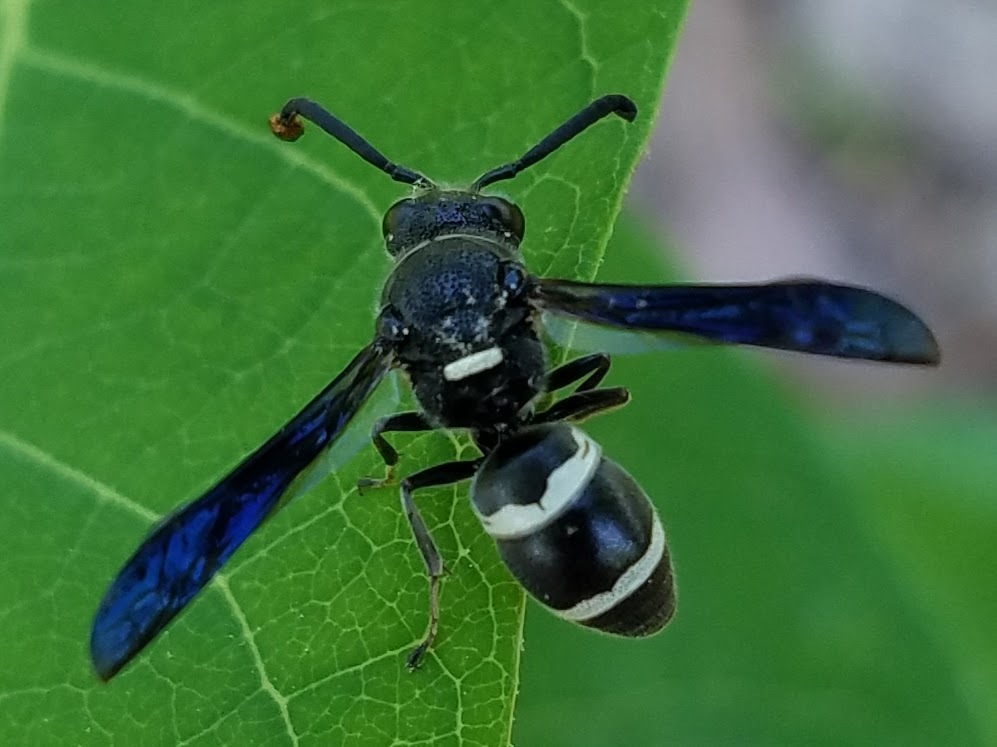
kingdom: Animalia
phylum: Arthropoda
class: Insecta
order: Hymenoptera
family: Eumenidae
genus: Euodynerus
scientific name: Euodynerus megaera
